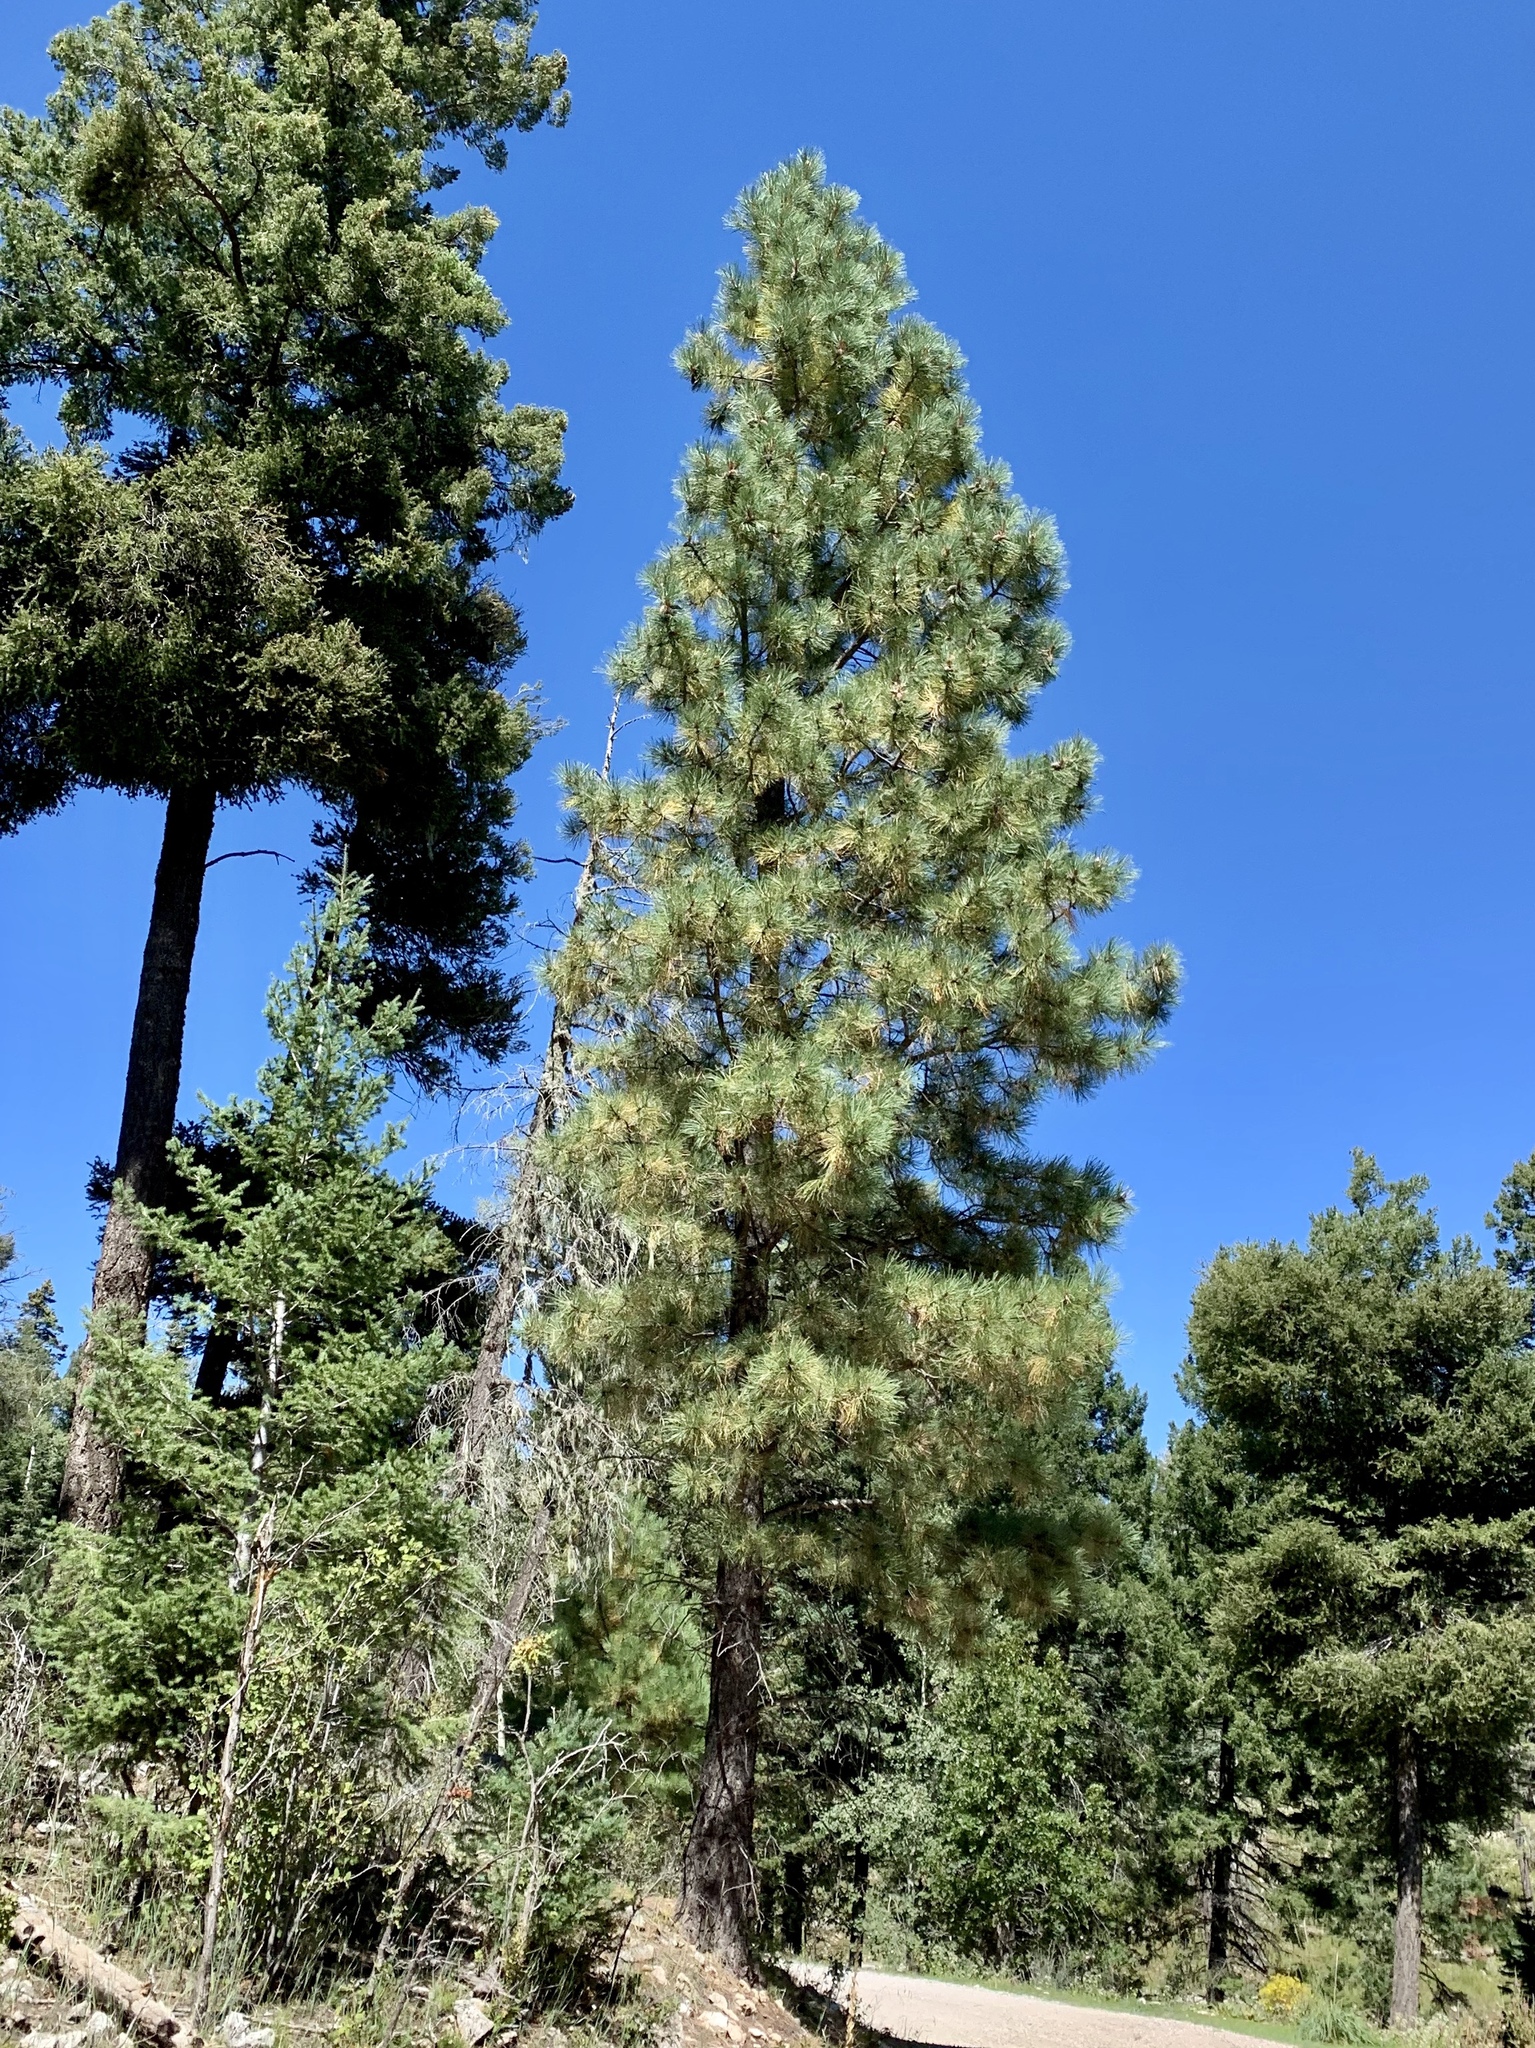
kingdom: Plantae
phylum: Tracheophyta
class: Pinopsida
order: Pinales
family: Pinaceae
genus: Pinus
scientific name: Pinus ponderosa
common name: Western yellow-pine
